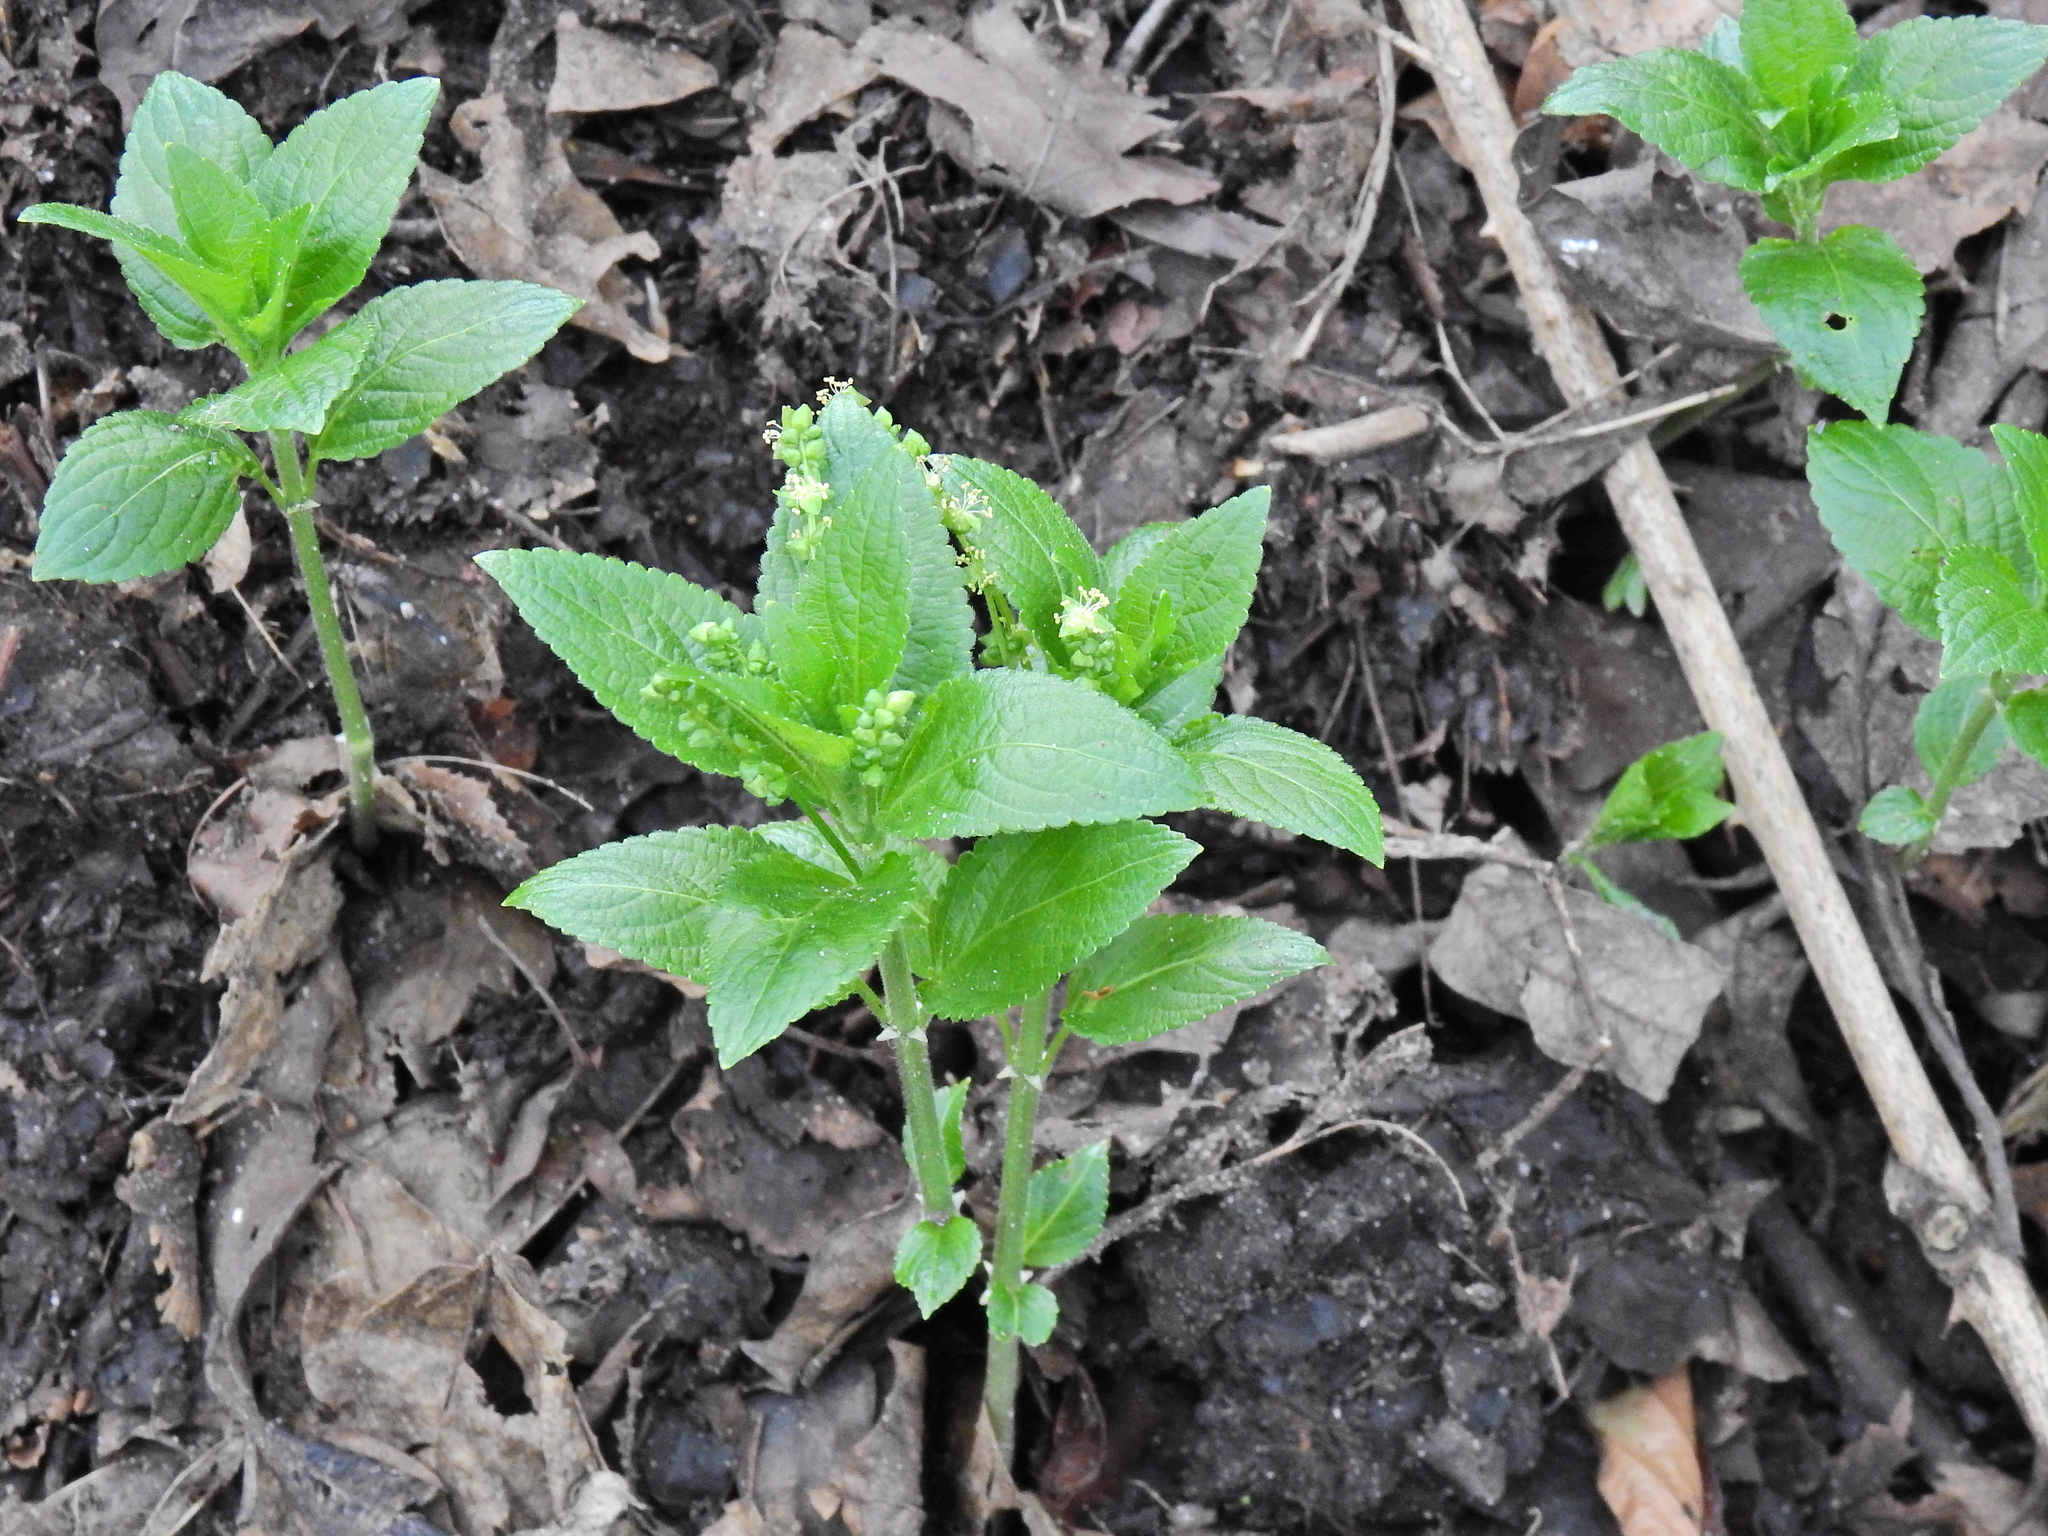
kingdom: Plantae
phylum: Tracheophyta
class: Magnoliopsida
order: Malpighiales
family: Euphorbiaceae
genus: Mercurialis
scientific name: Mercurialis perennis
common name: Dog mercury
